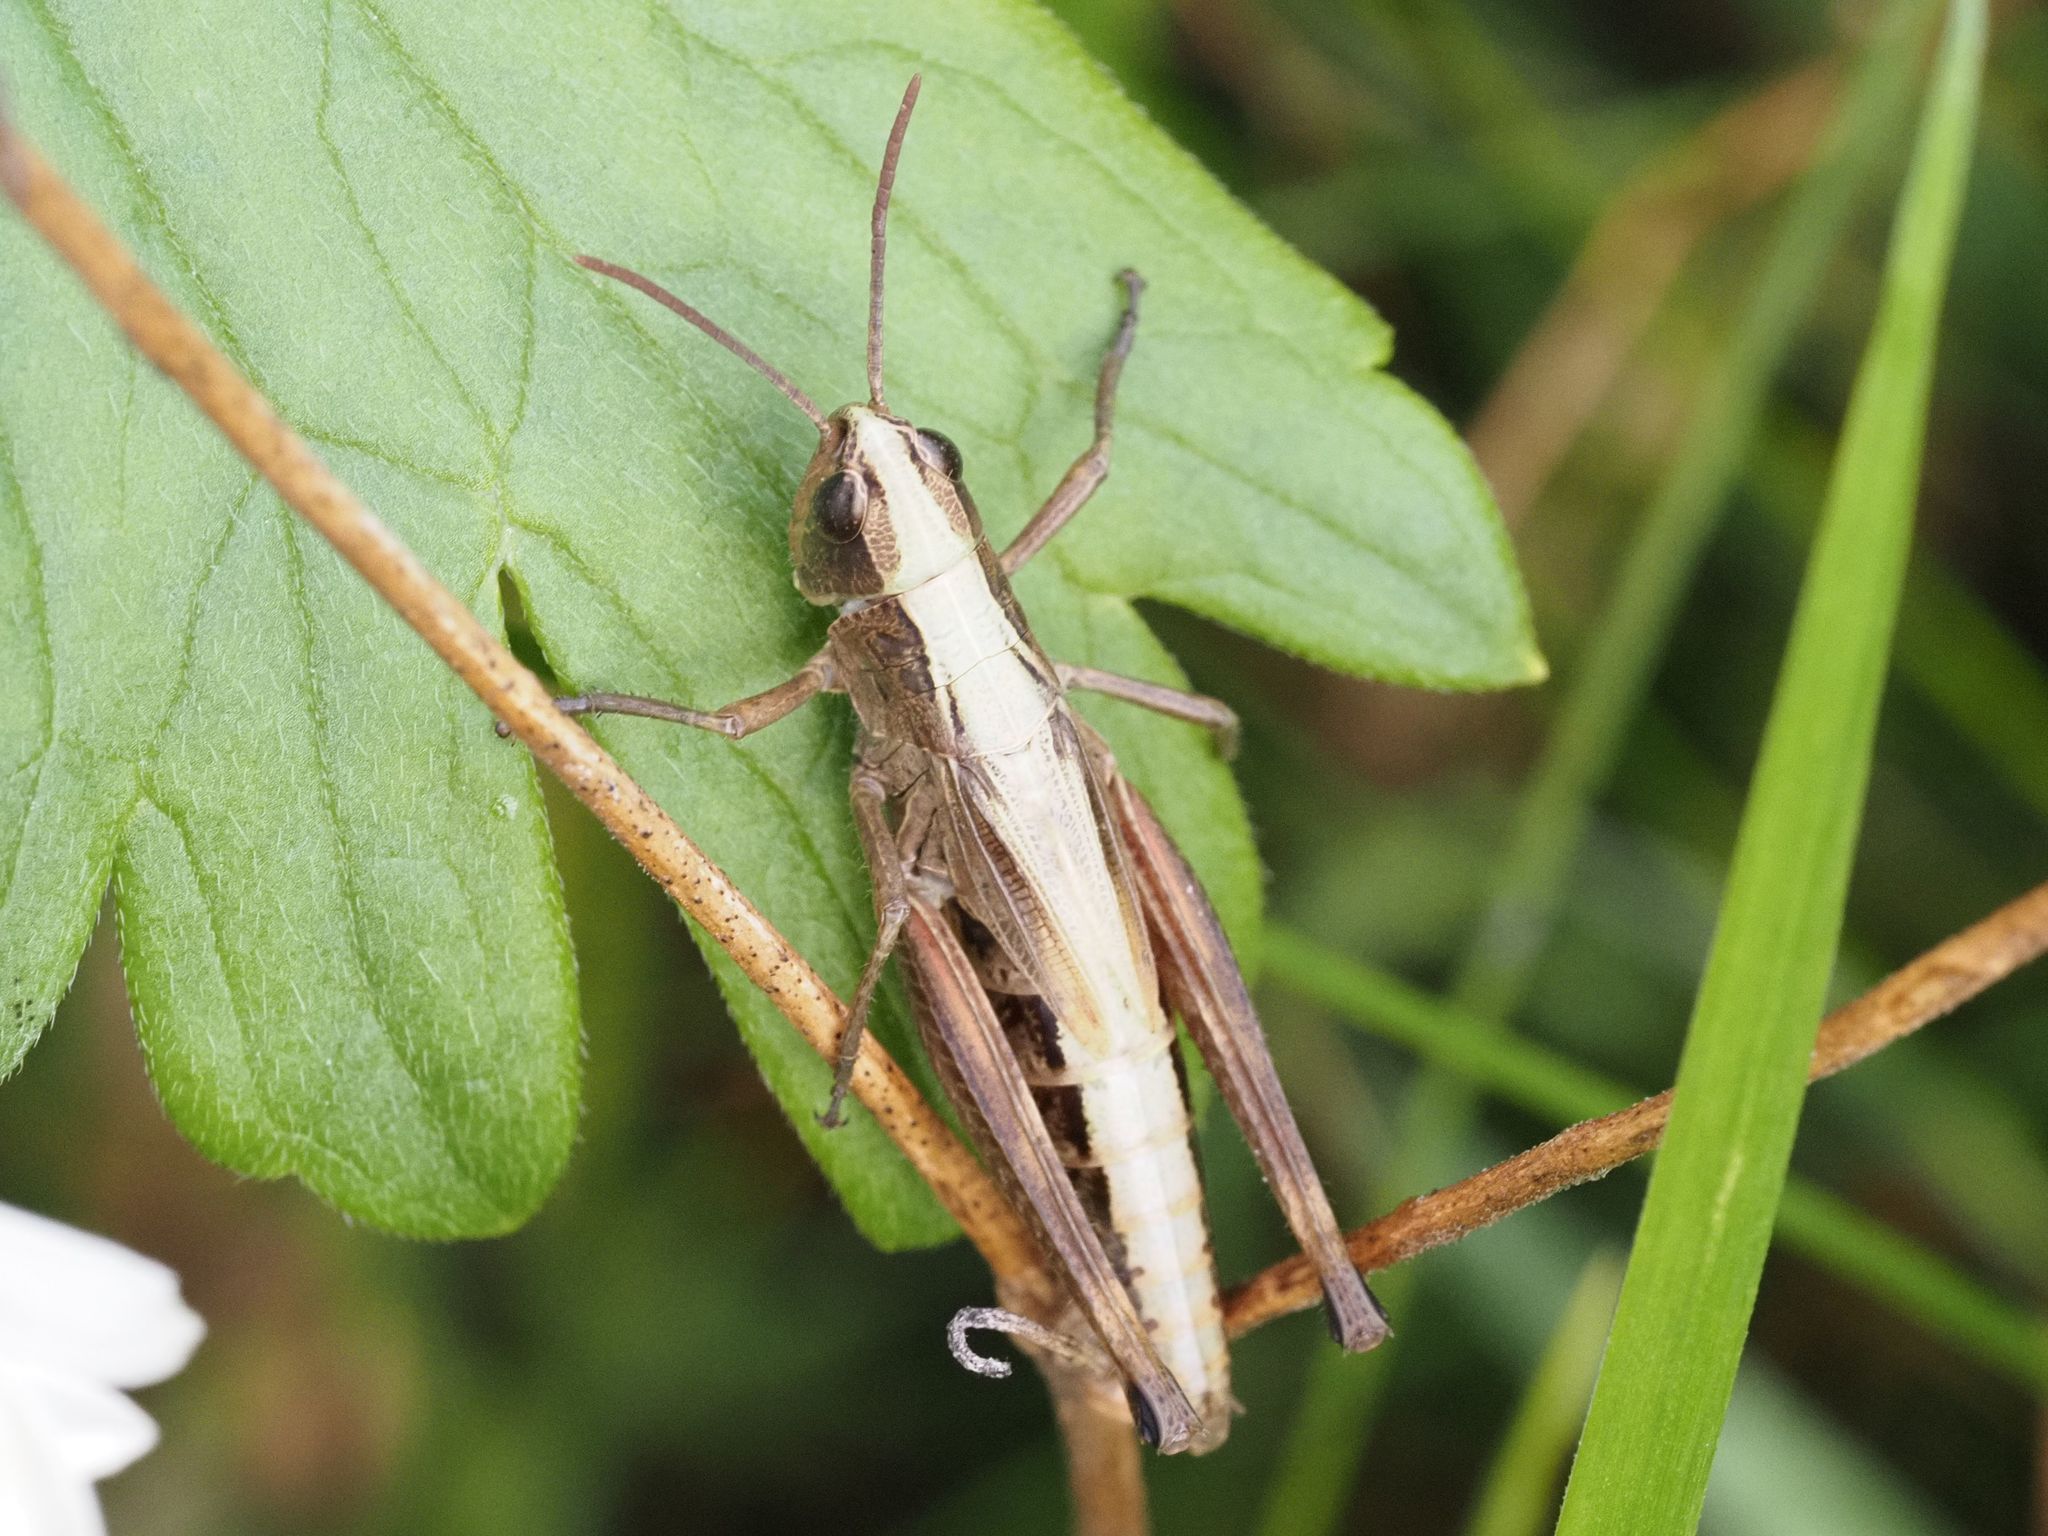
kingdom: Animalia
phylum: Arthropoda
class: Insecta
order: Orthoptera
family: Acrididae
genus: Pseudochorthippus
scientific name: Pseudochorthippus parallelus
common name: Meadow grasshopper
